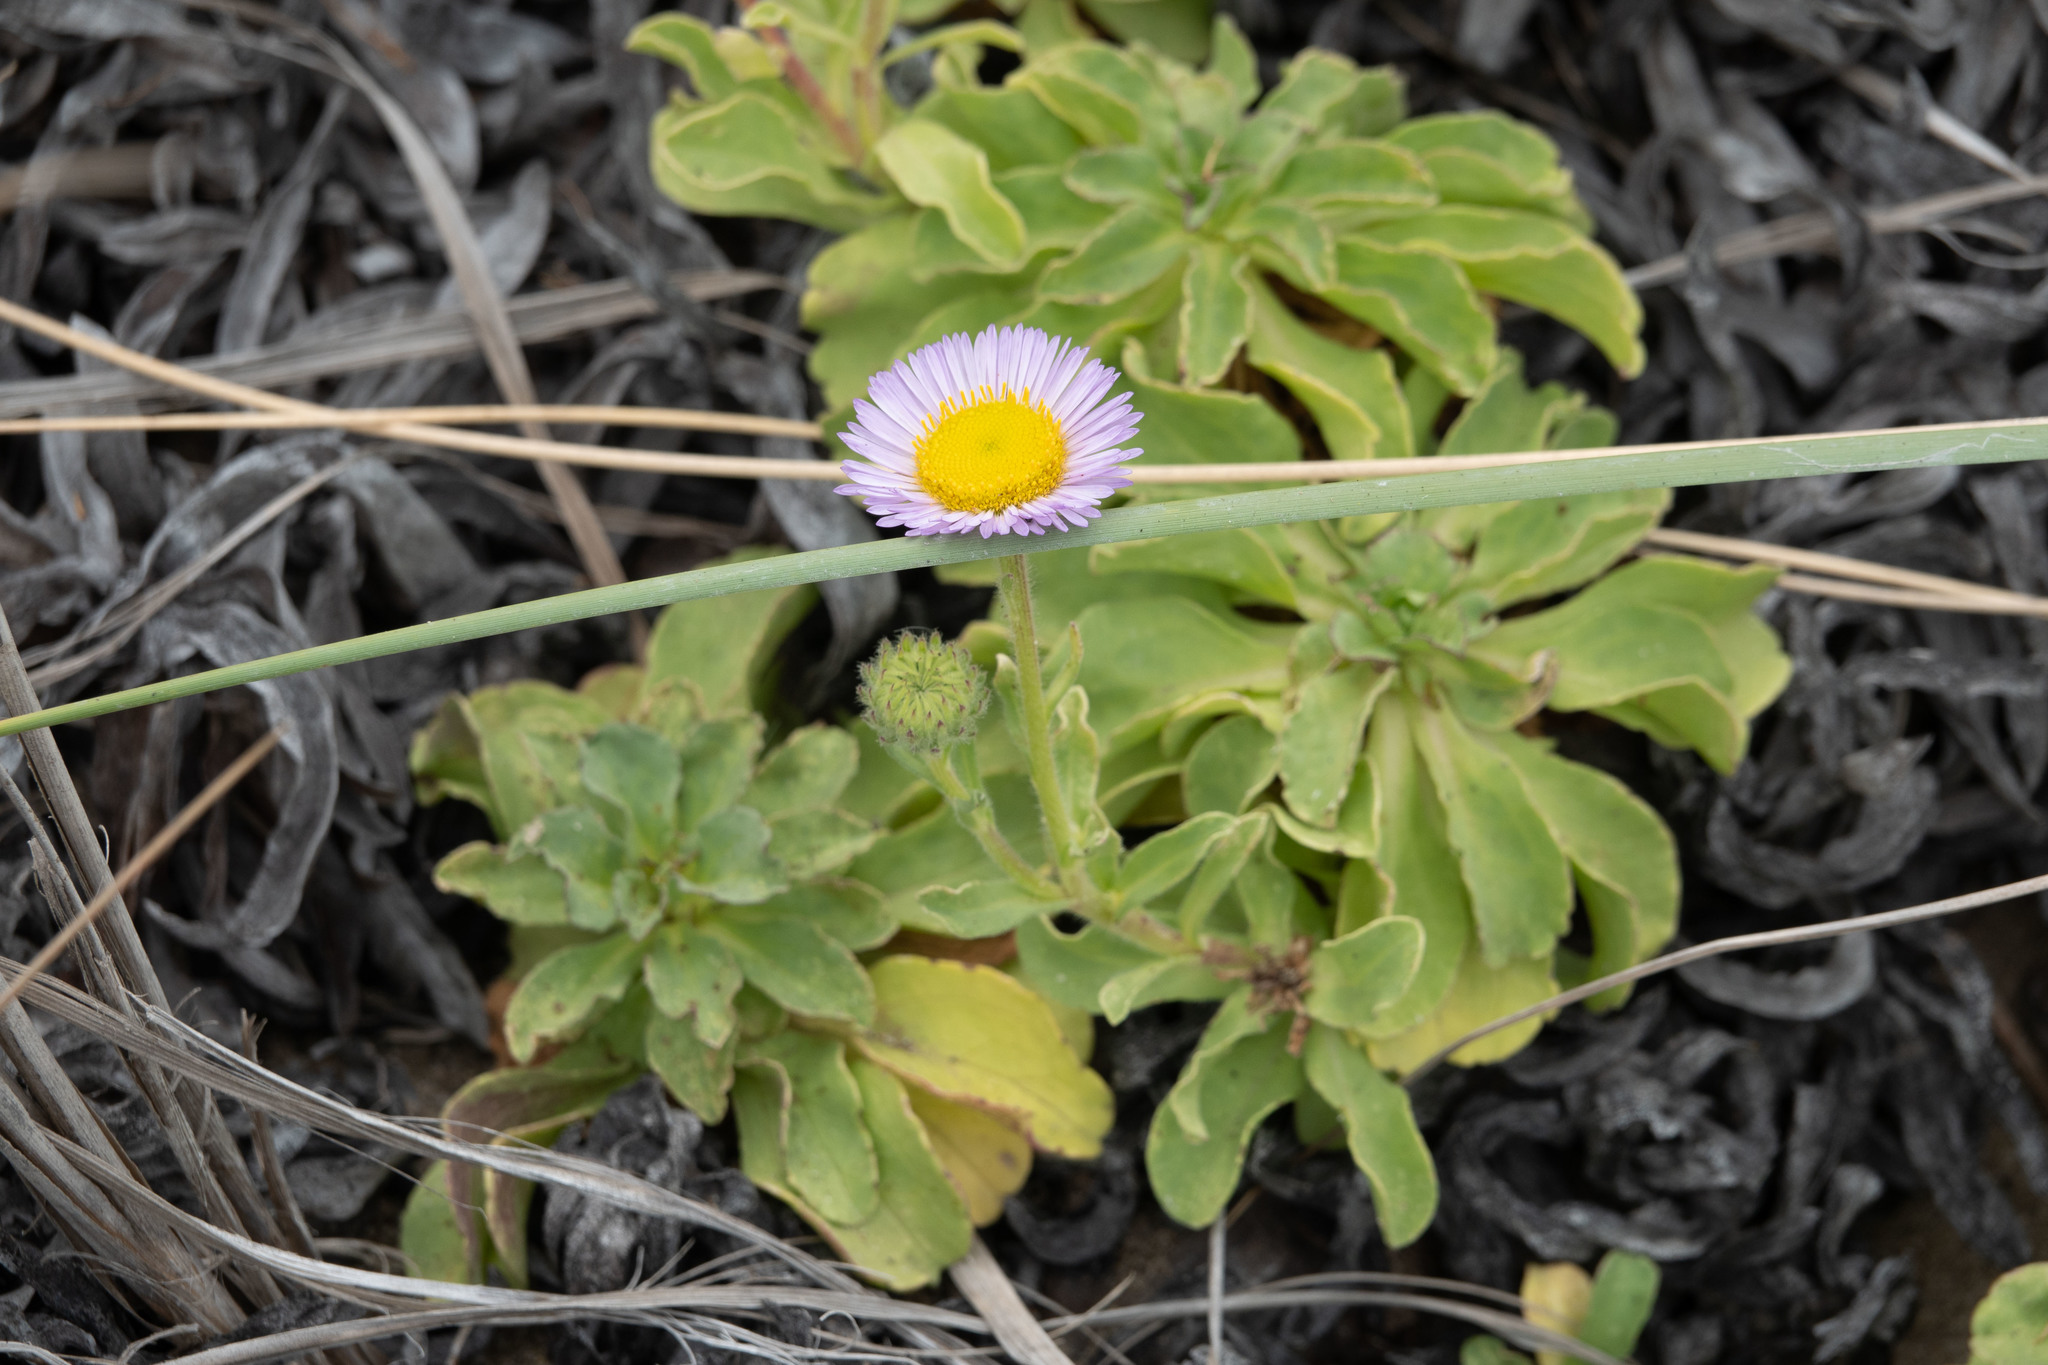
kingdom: Plantae
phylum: Tracheophyta
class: Magnoliopsida
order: Asterales
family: Asteraceae
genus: Erigeron
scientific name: Erigeron glaucus
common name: Seaside daisy
